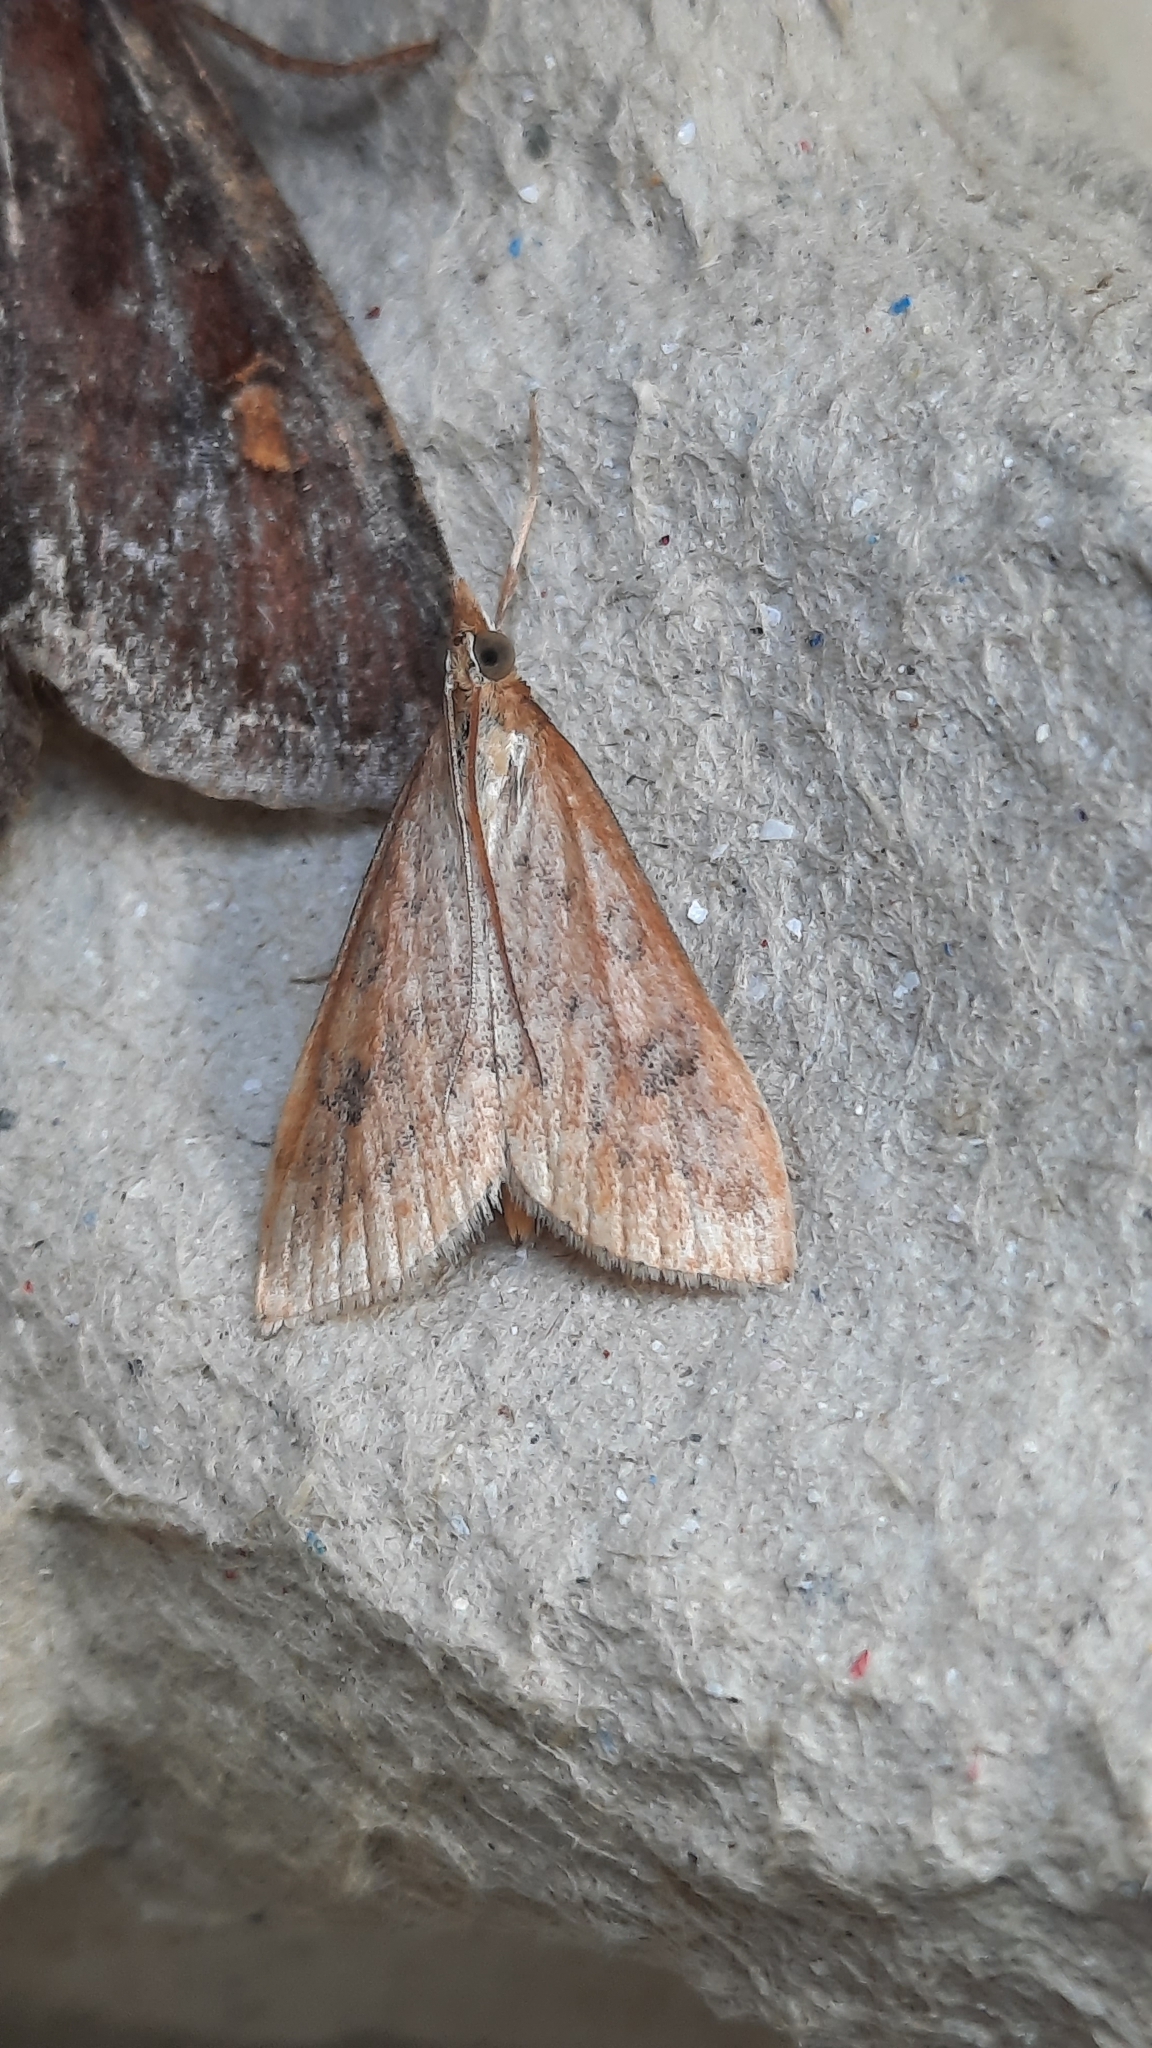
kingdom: Animalia
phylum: Arthropoda
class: Insecta
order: Lepidoptera
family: Crambidae
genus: Udea
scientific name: Udea ferrugalis
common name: Rusty dot
